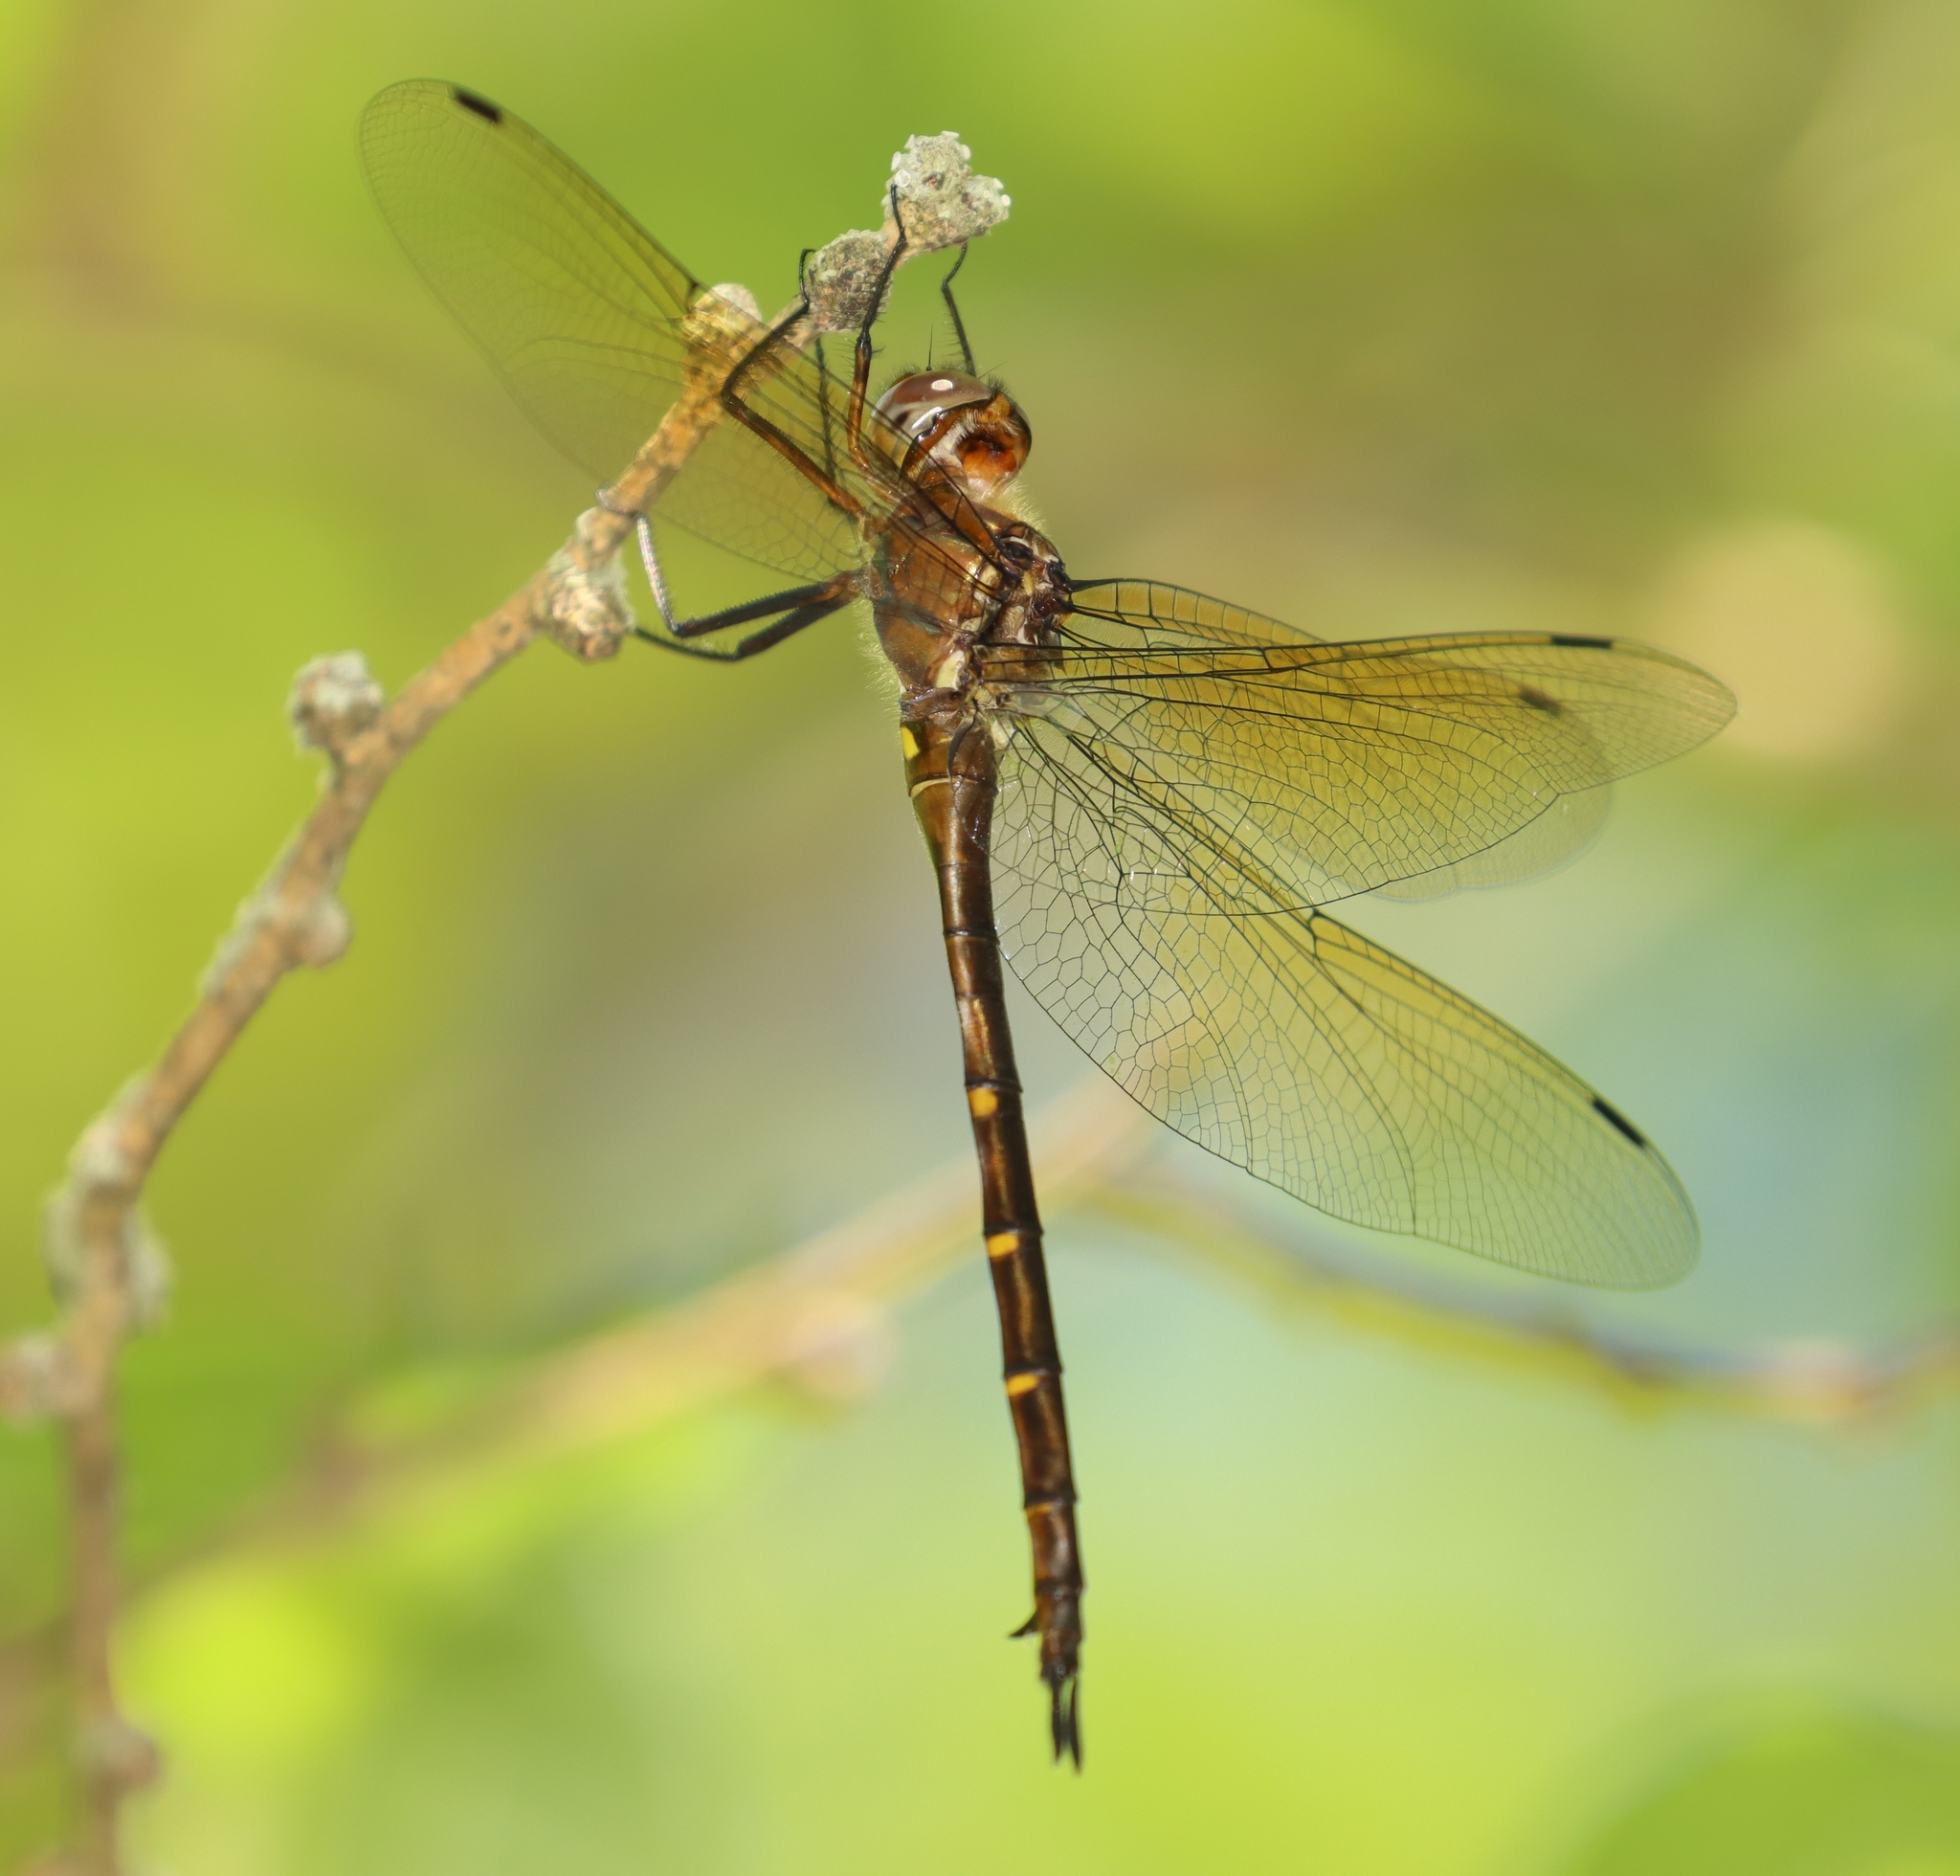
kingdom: Animalia
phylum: Arthropoda
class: Insecta
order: Odonata
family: Corduliidae
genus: Somatochlora
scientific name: Somatochlora linearis
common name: Mocha emerald
